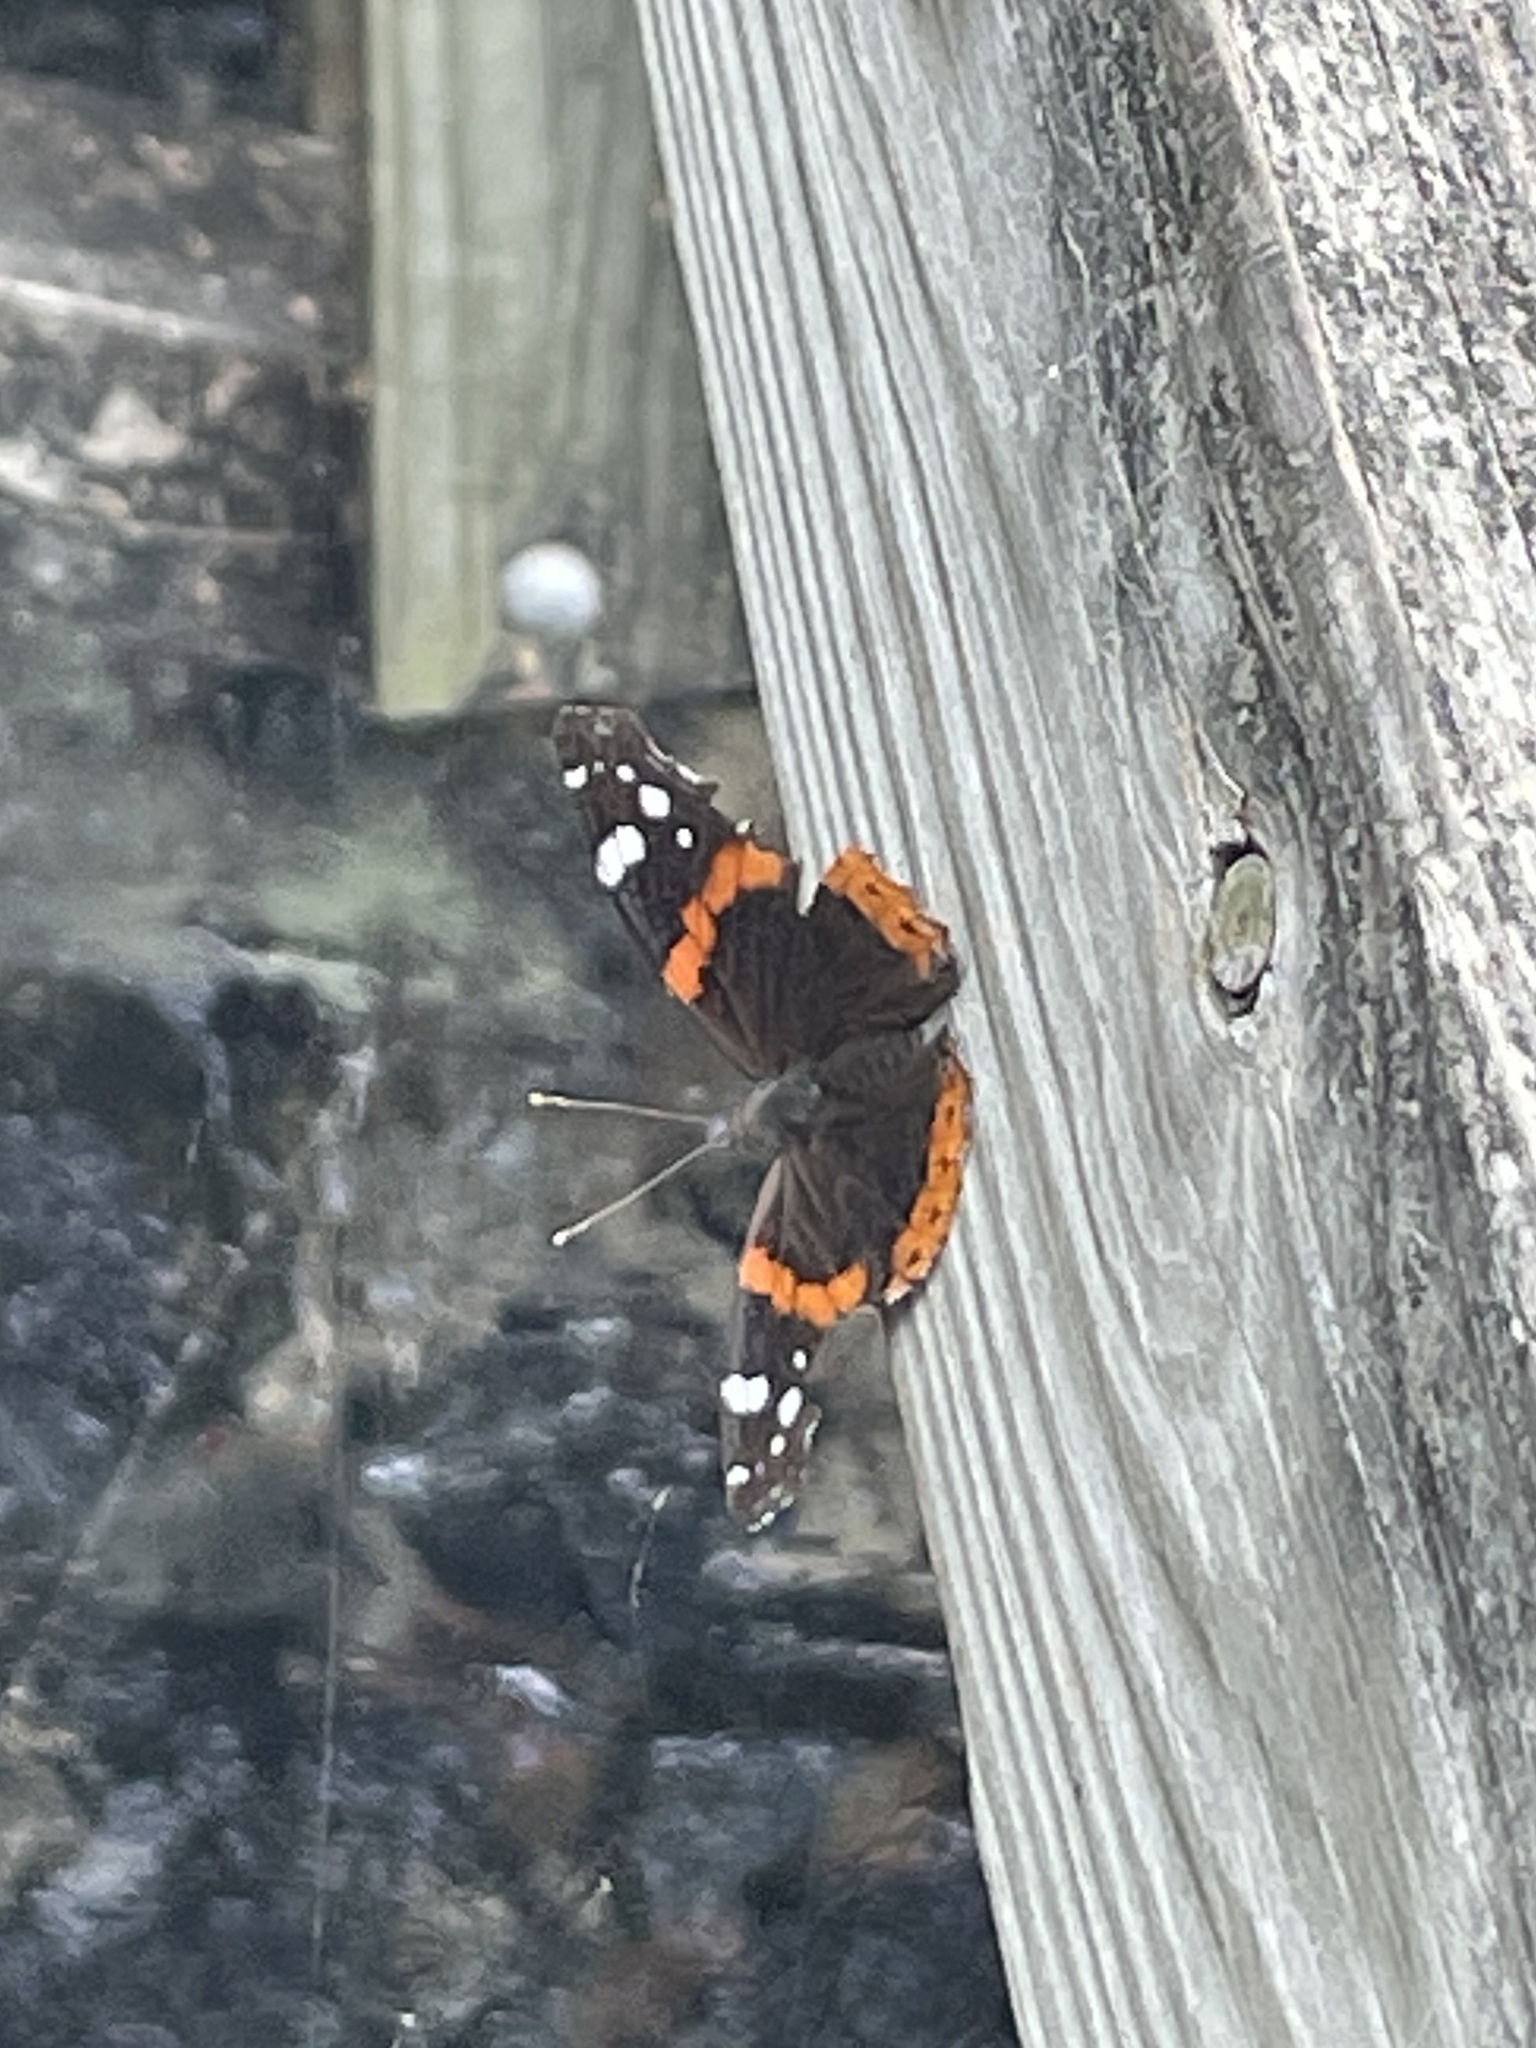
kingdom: Animalia
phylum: Arthropoda
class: Insecta
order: Lepidoptera
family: Nymphalidae
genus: Vanessa
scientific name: Vanessa atalanta
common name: Red admiral
